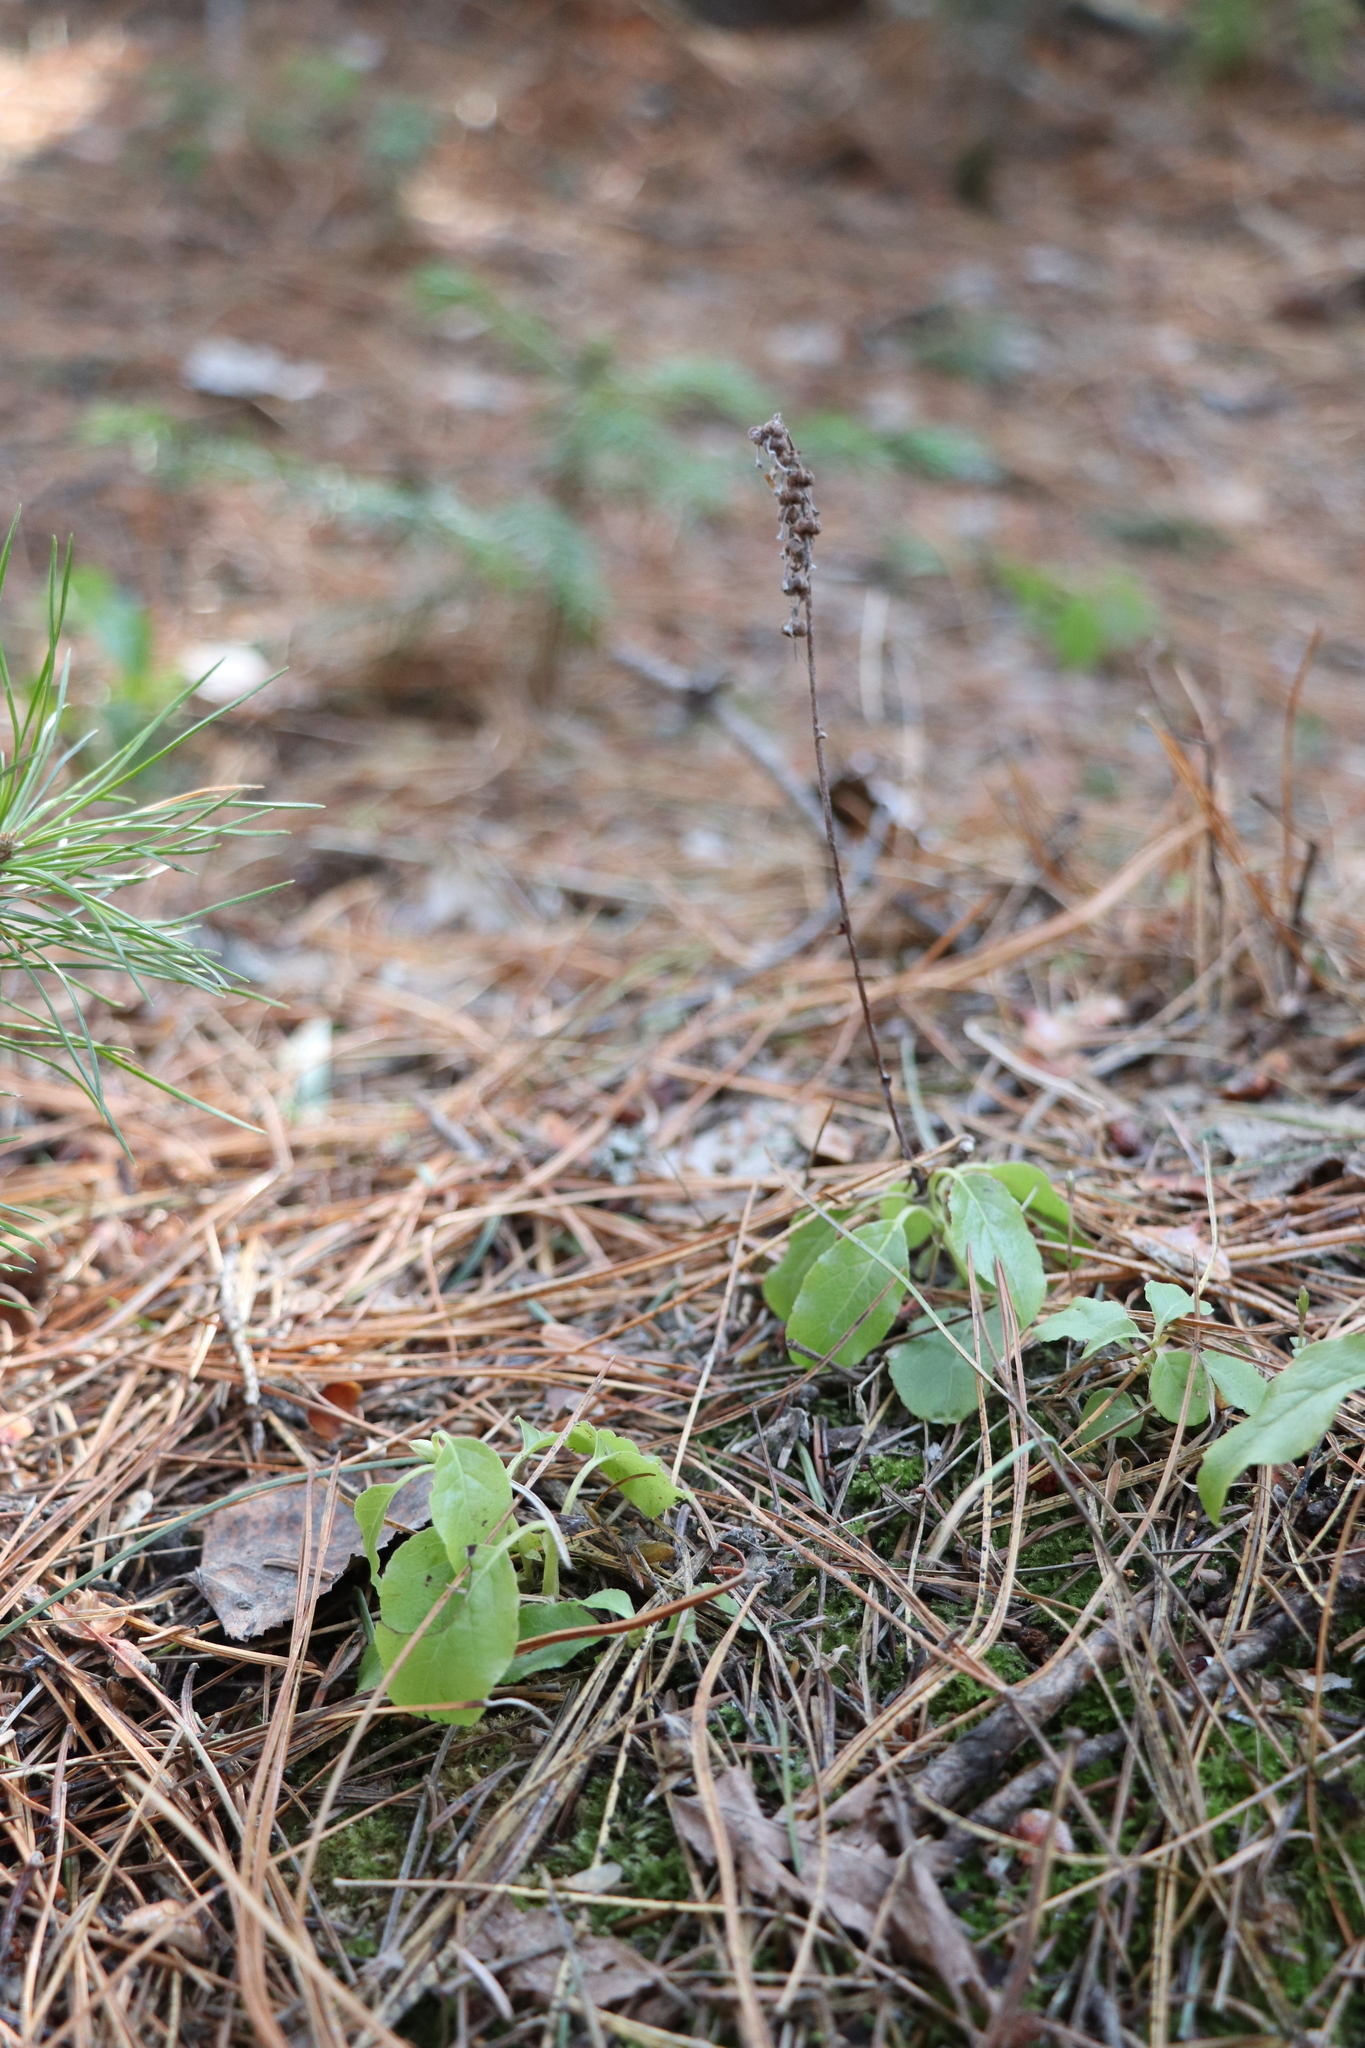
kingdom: Plantae
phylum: Tracheophyta
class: Magnoliopsida
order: Ericales
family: Ericaceae
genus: Orthilia
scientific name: Orthilia secunda
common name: One-sided orthilia
